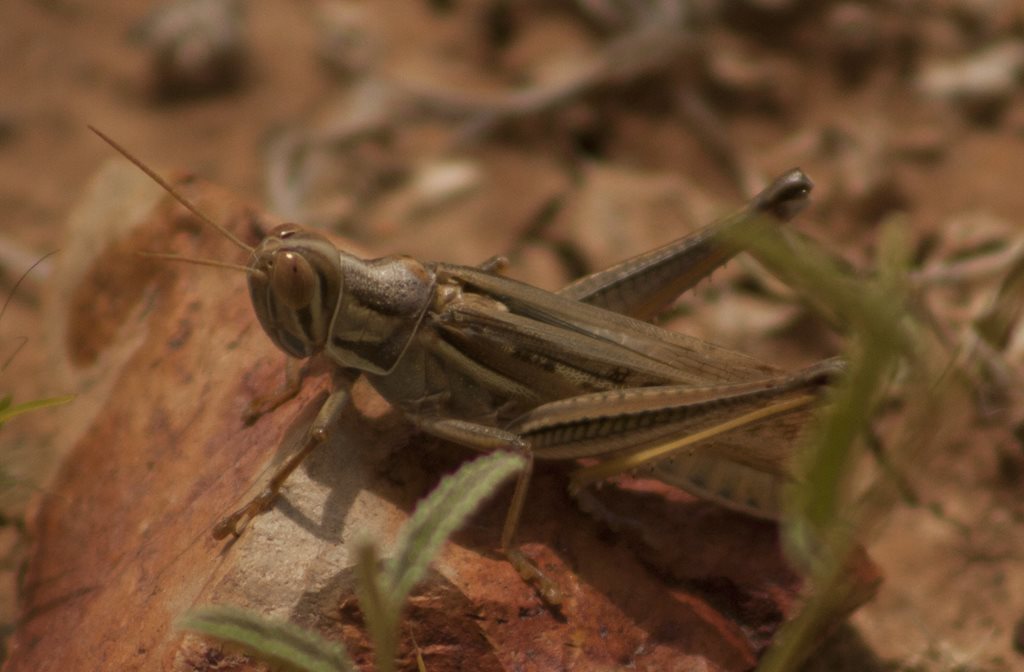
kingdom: Animalia
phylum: Arthropoda
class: Insecta
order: Orthoptera
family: Acrididae
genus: Austracris
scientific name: Austracris guttulosa
